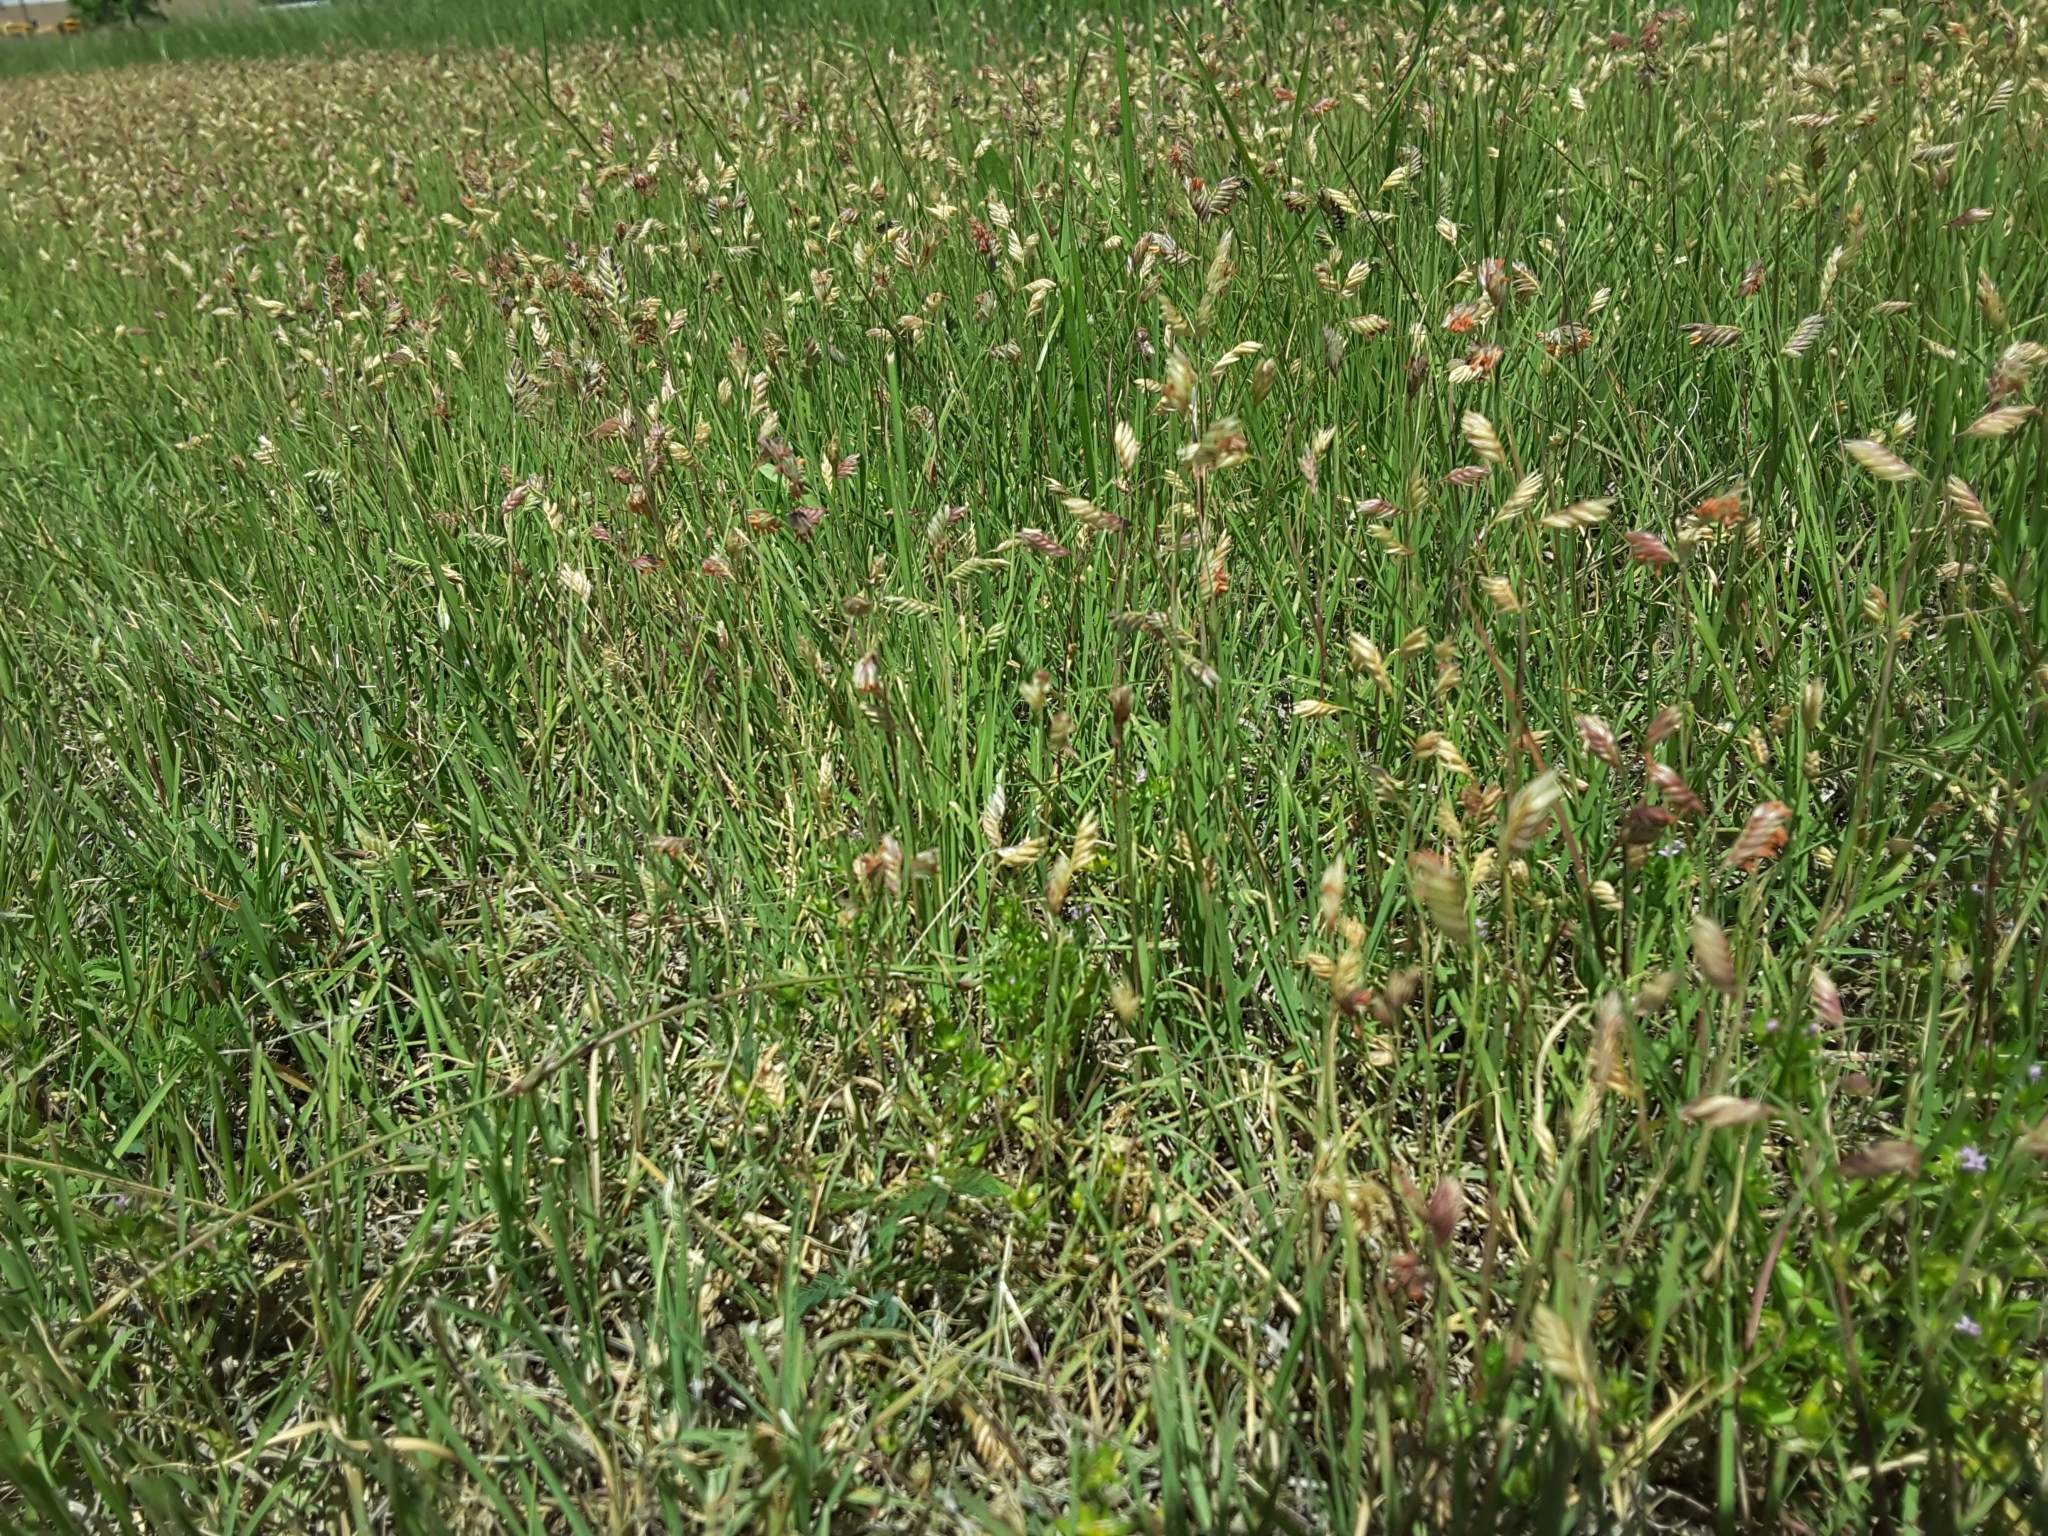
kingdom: Plantae
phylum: Tracheophyta
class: Liliopsida
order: Poales
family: Poaceae
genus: Bouteloua
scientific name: Bouteloua dactyloides
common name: Buffalo grass
